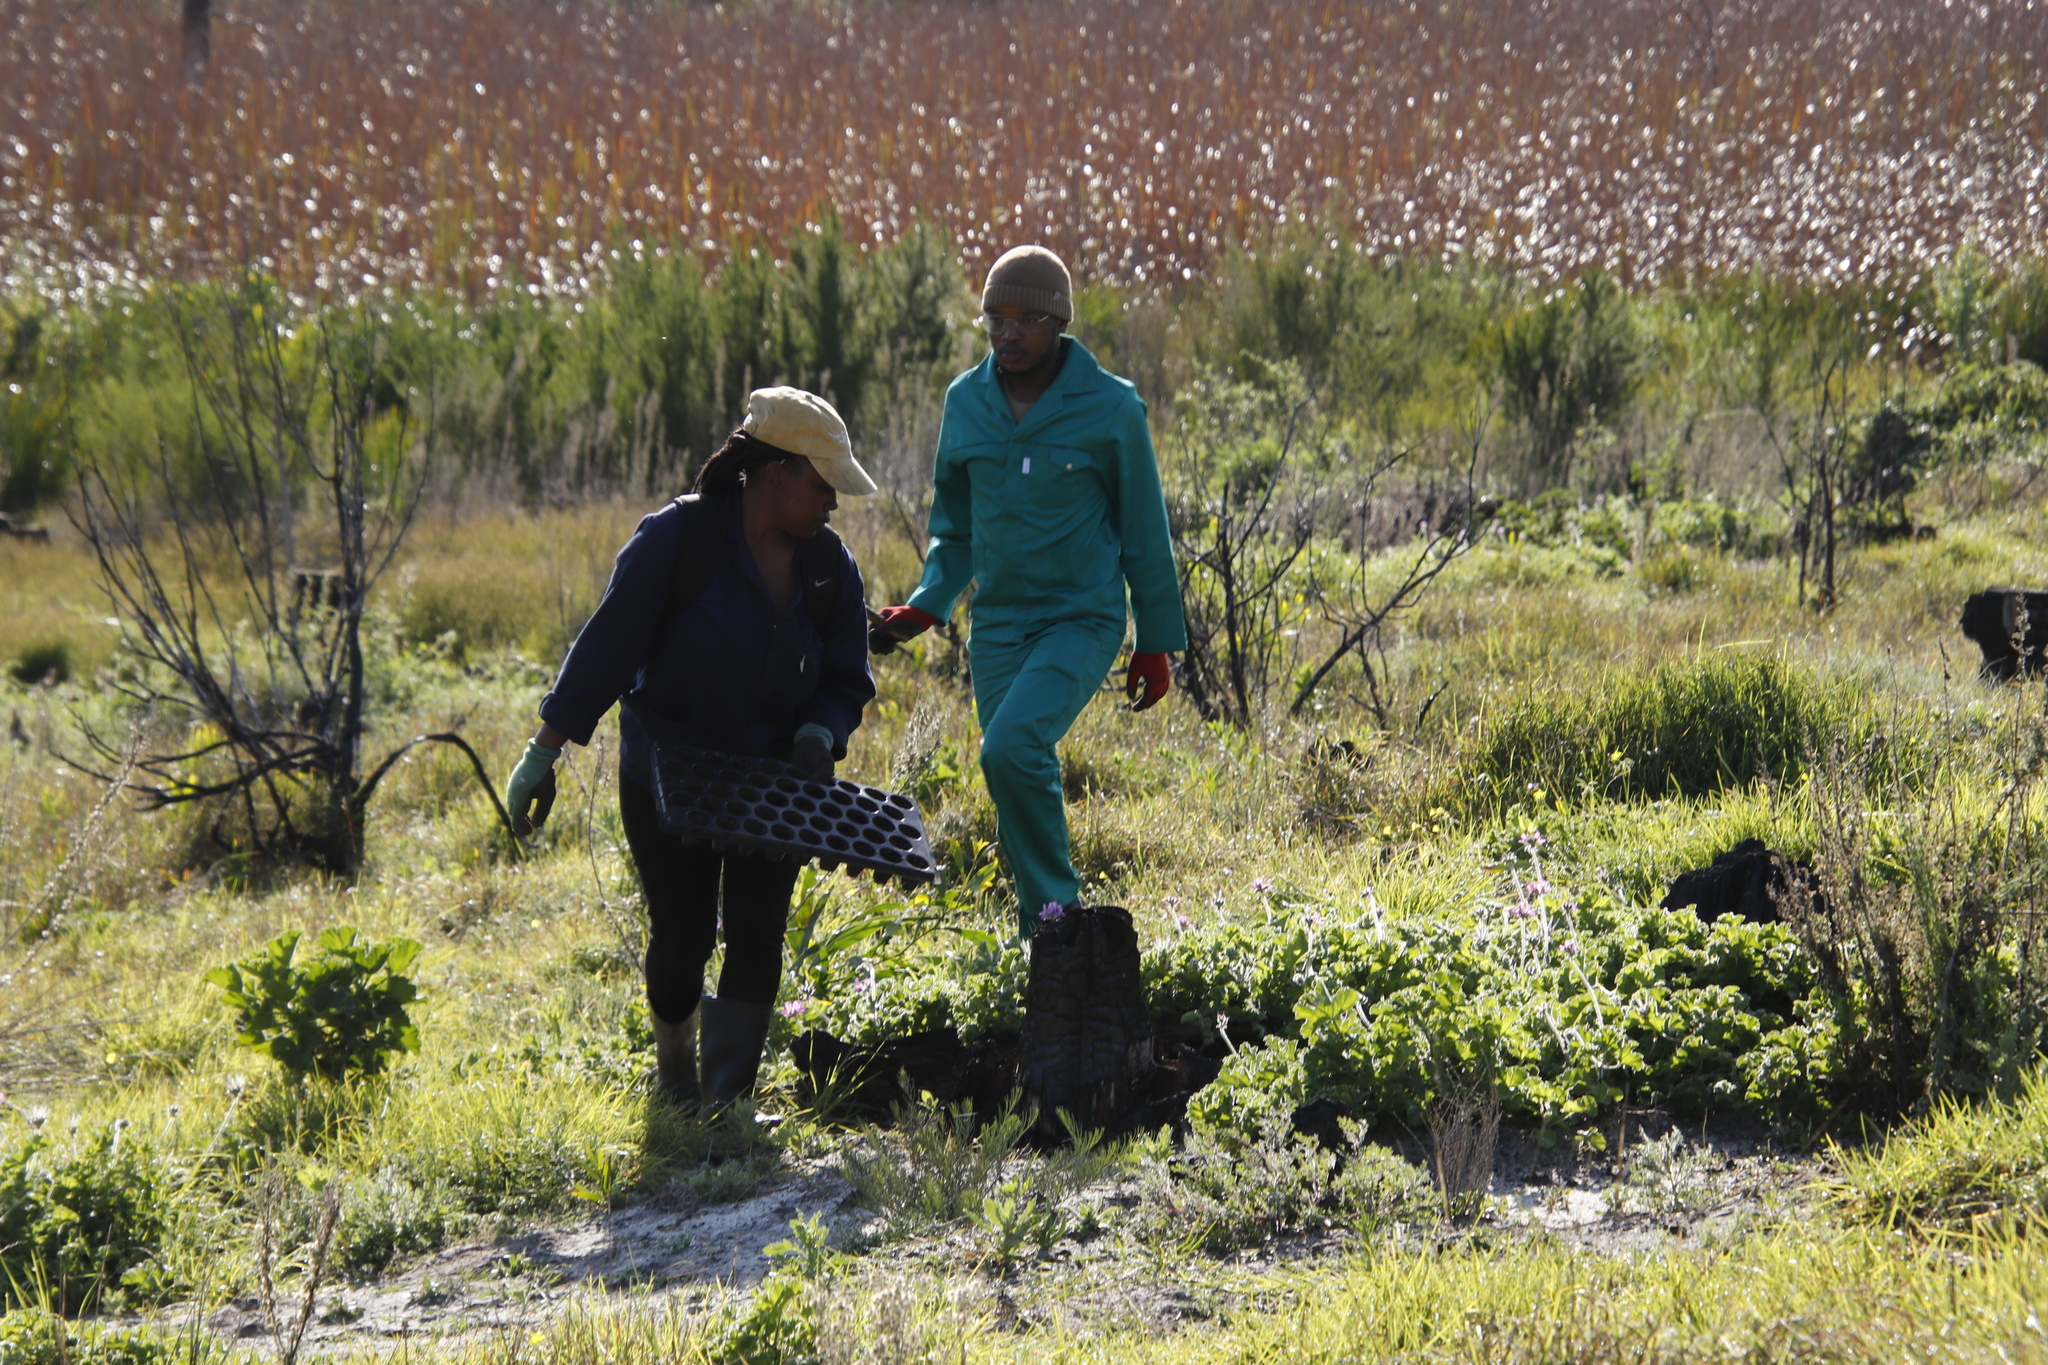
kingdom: Plantae
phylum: Tracheophyta
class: Magnoliopsida
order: Geraniales
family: Geraniaceae
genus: Pelargonium
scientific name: Pelargonium capitatum
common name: Rose scented geranium
